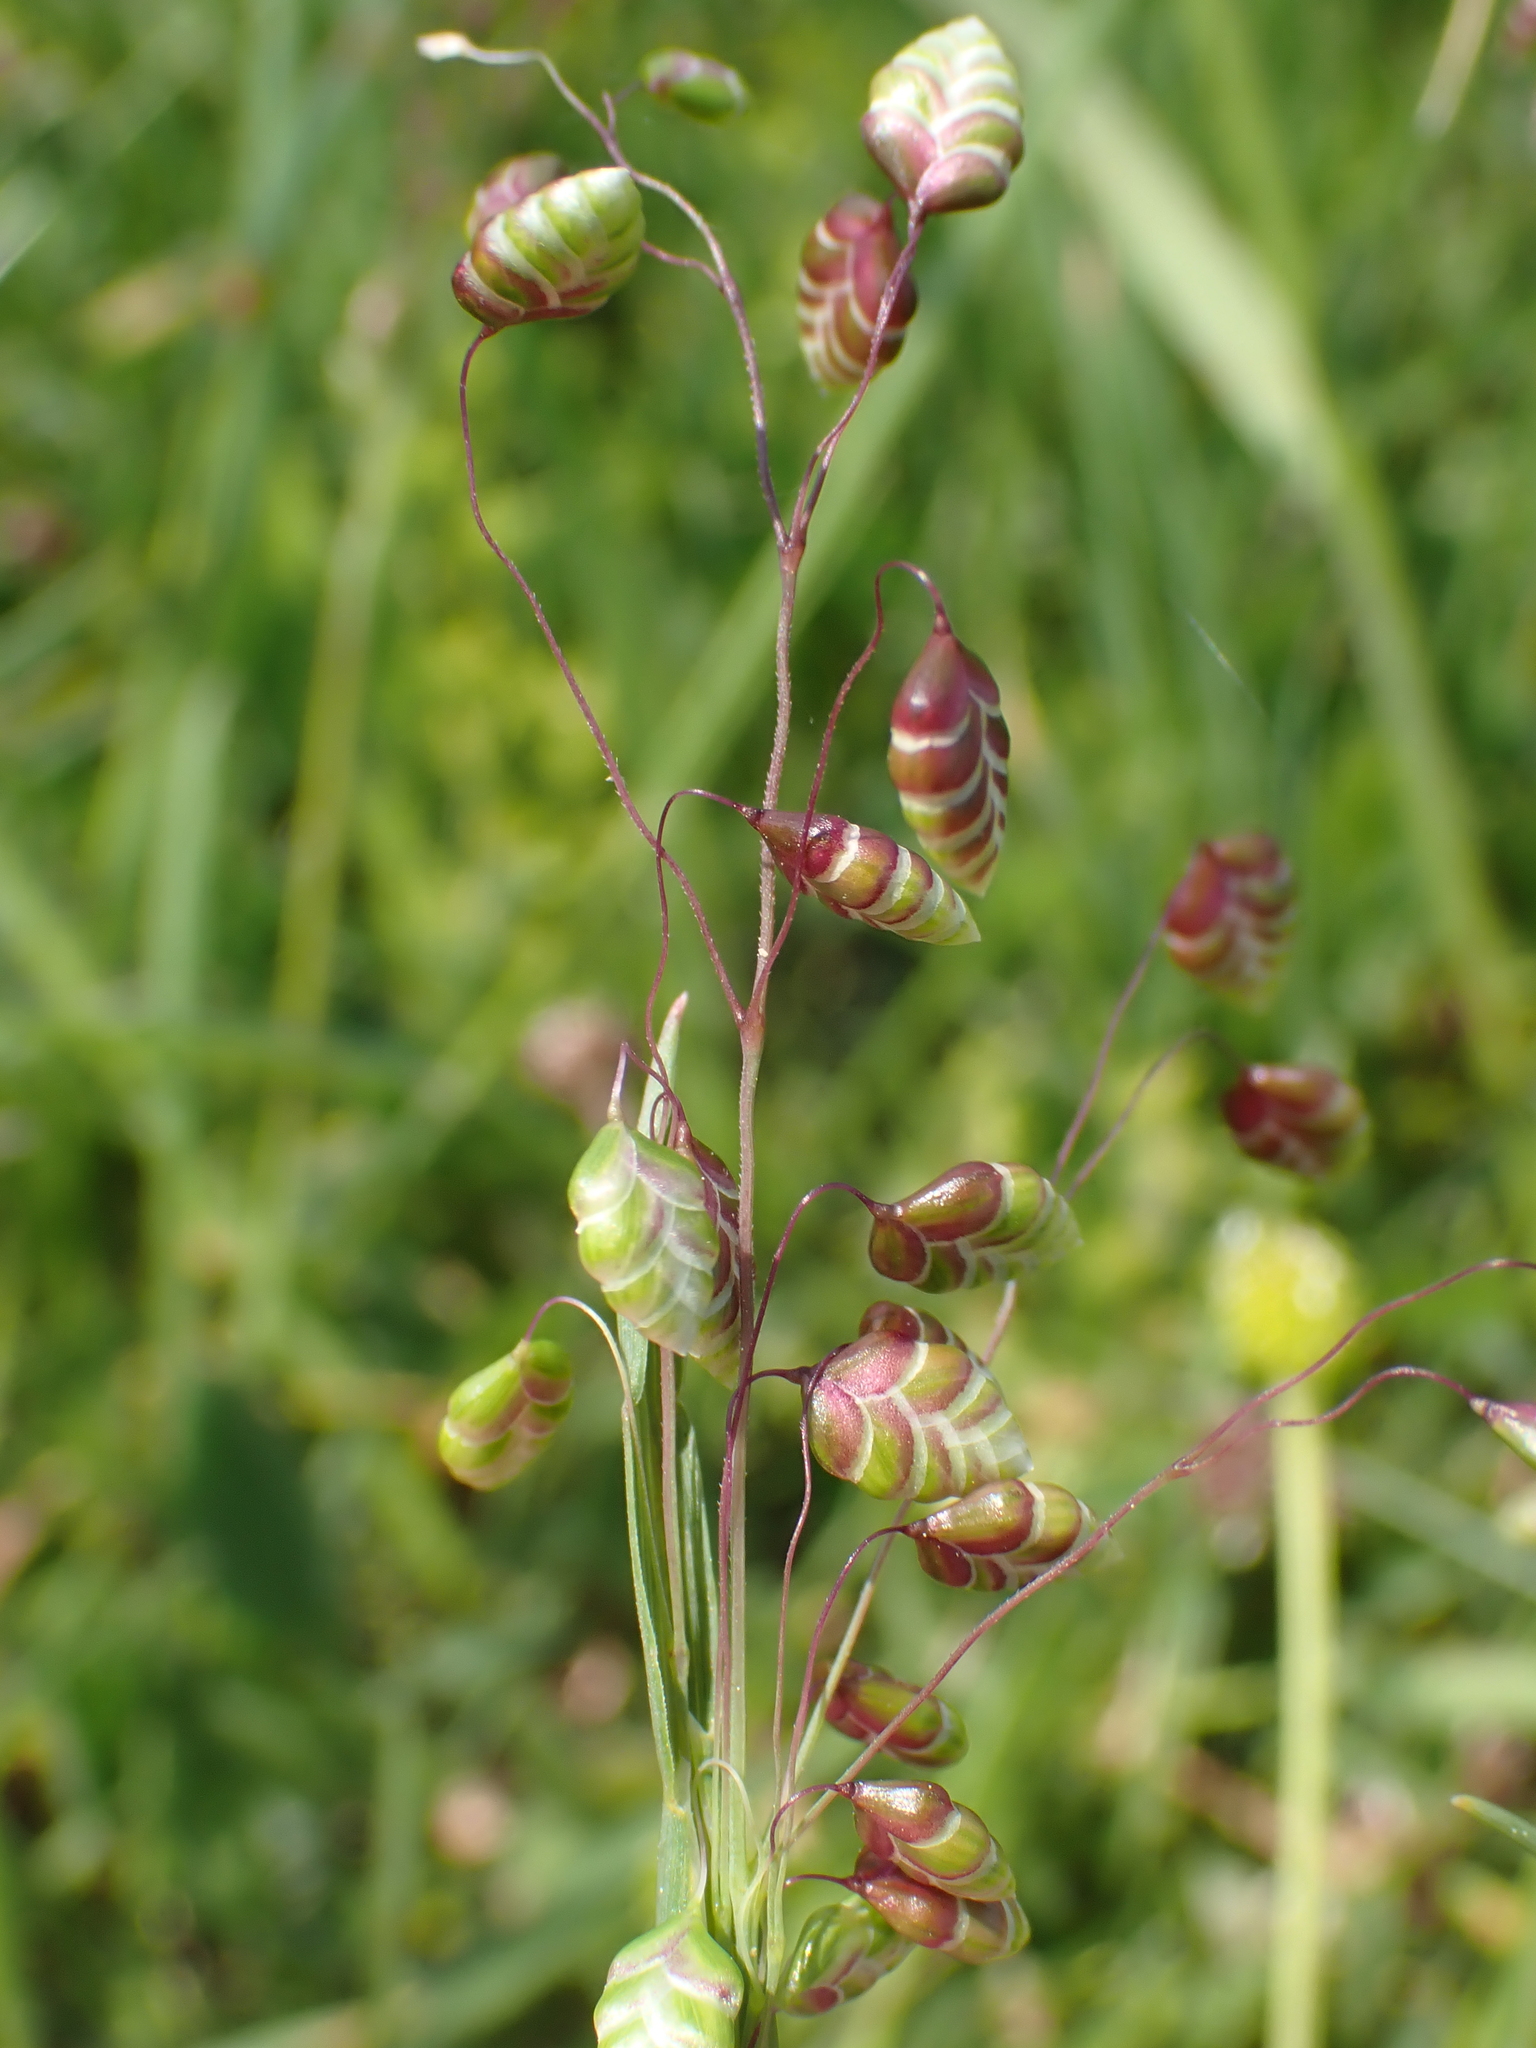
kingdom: Plantae
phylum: Tracheophyta
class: Liliopsida
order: Poales
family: Poaceae
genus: Briza
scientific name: Briza media
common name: Quaking grass
